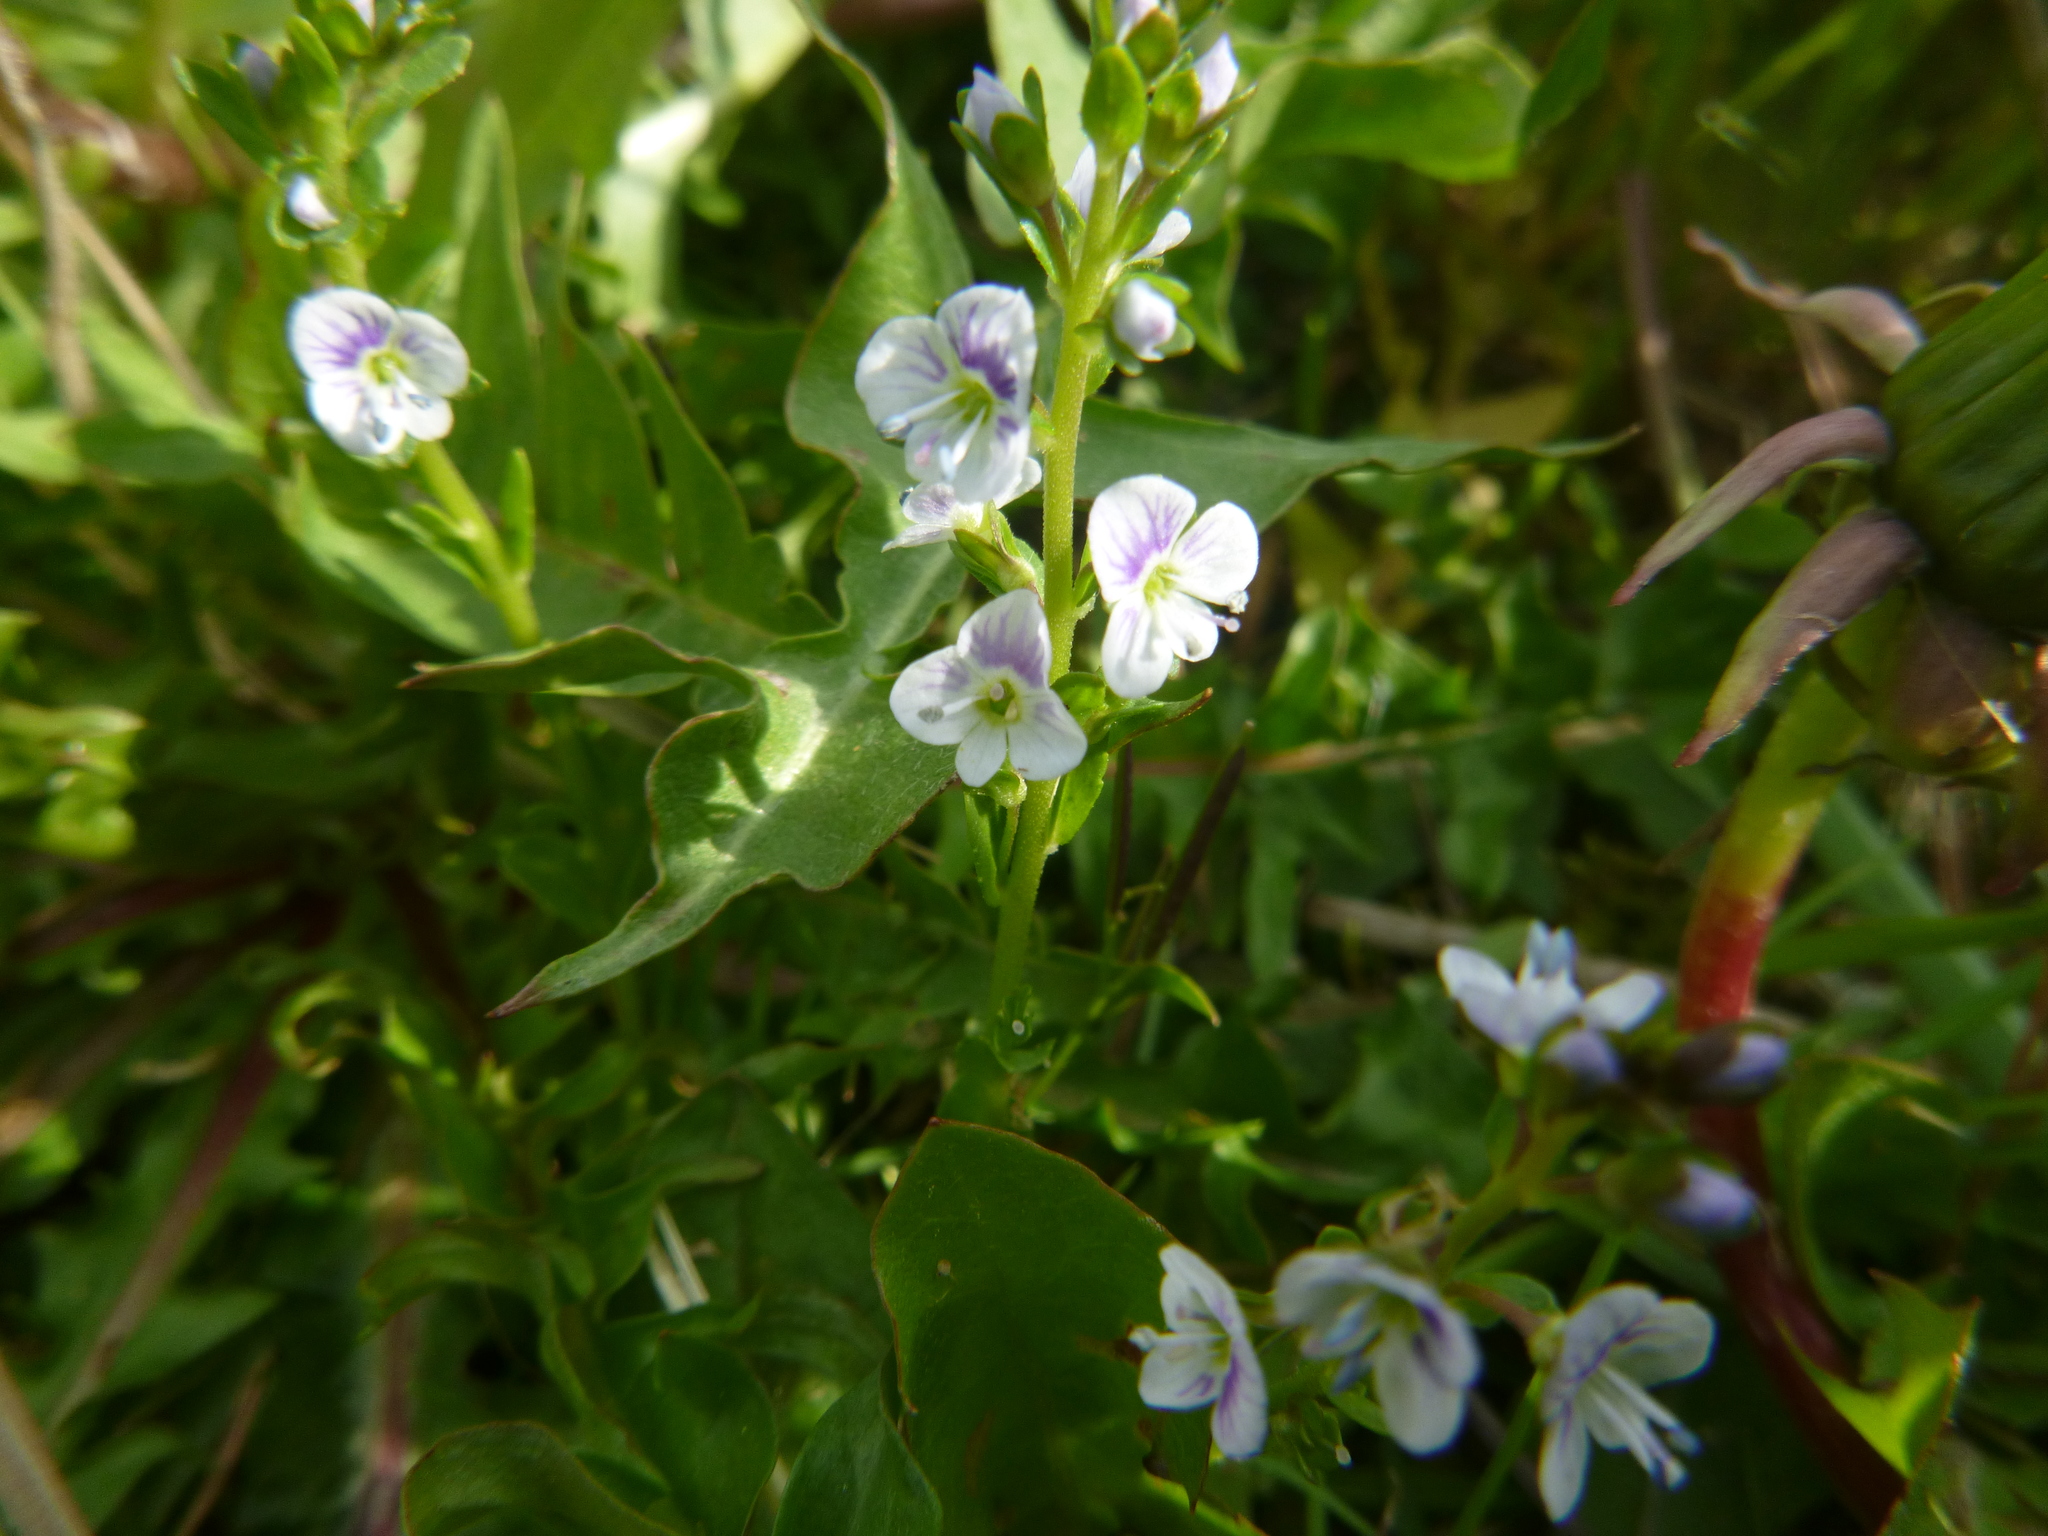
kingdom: Plantae
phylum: Tracheophyta
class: Magnoliopsida
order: Lamiales
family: Plantaginaceae
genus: Veronica
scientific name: Veronica serpyllifolia
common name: Thyme-leaved speedwell
